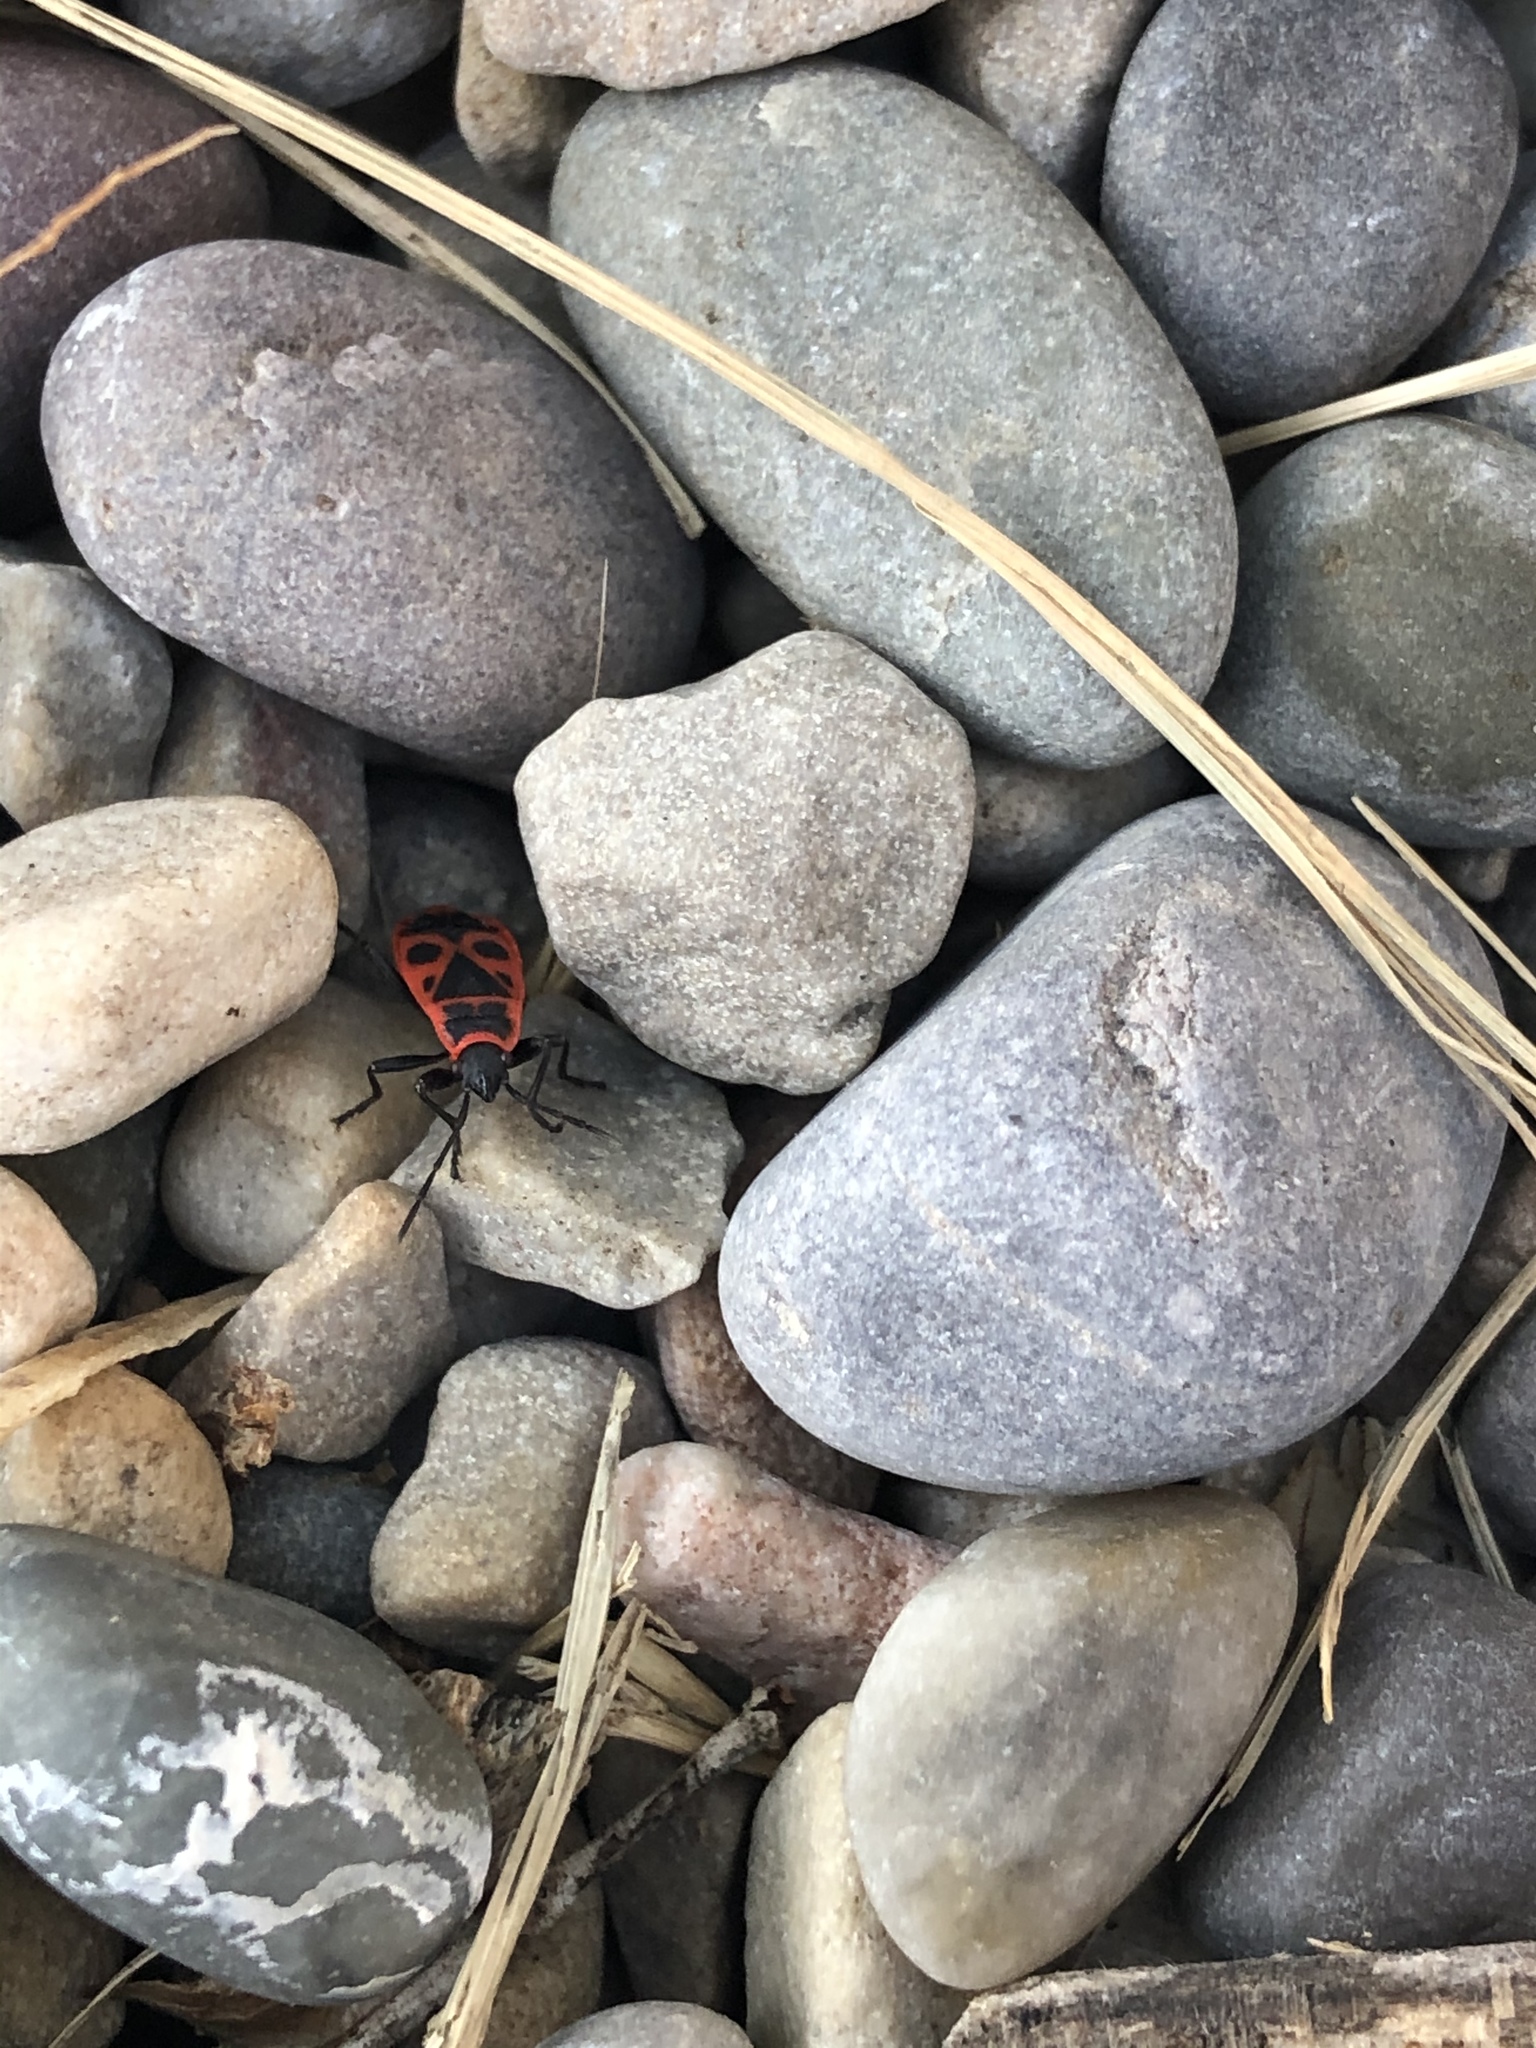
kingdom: Animalia
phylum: Arthropoda
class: Insecta
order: Hemiptera
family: Pyrrhocoridae
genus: Pyrrhocoris
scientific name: Pyrrhocoris apterus
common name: Firebug
